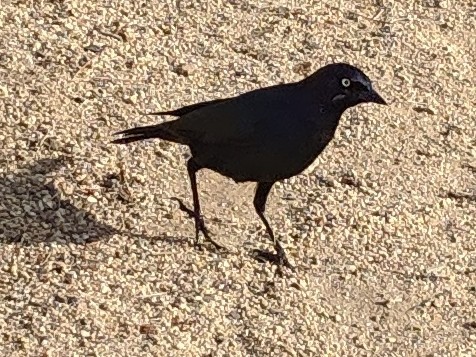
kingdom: Animalia
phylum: Chordata
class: Aves
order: Passeriformes
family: Icteridae
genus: Euphagus
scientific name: Euphagus cyanocephalus
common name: Brewer's blackbird
